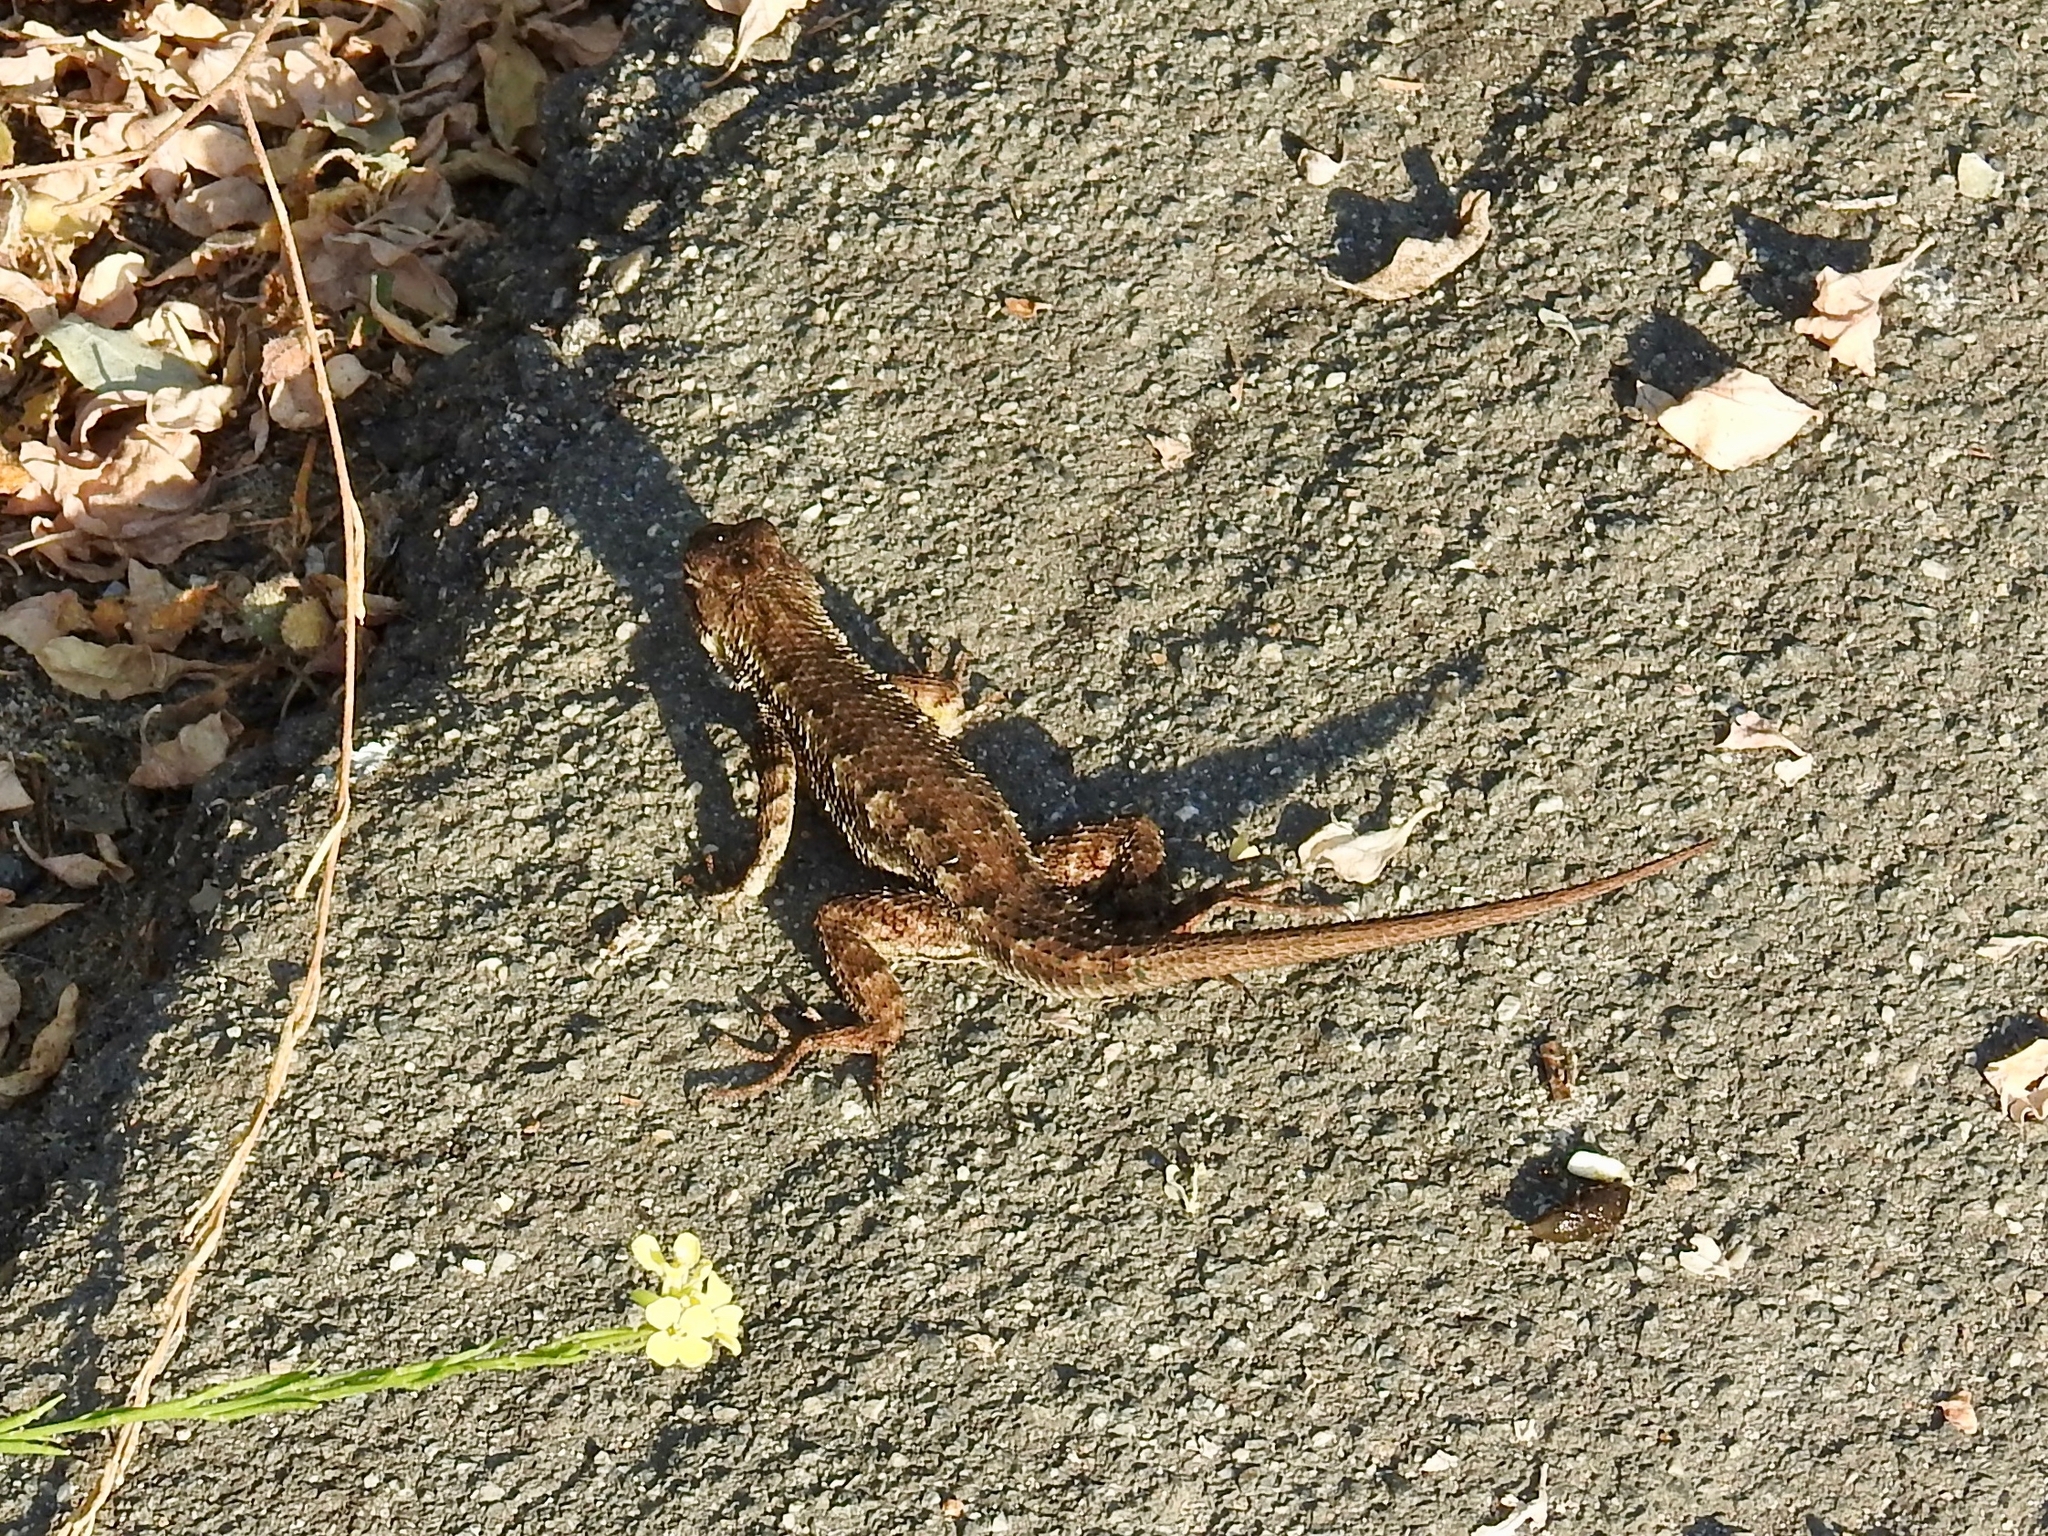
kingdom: Animalia
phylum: Chordata
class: Squamata
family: Phrynosomatidae
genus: Sceloporus
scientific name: Sceloporus occidentalis
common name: Western fence lizard
